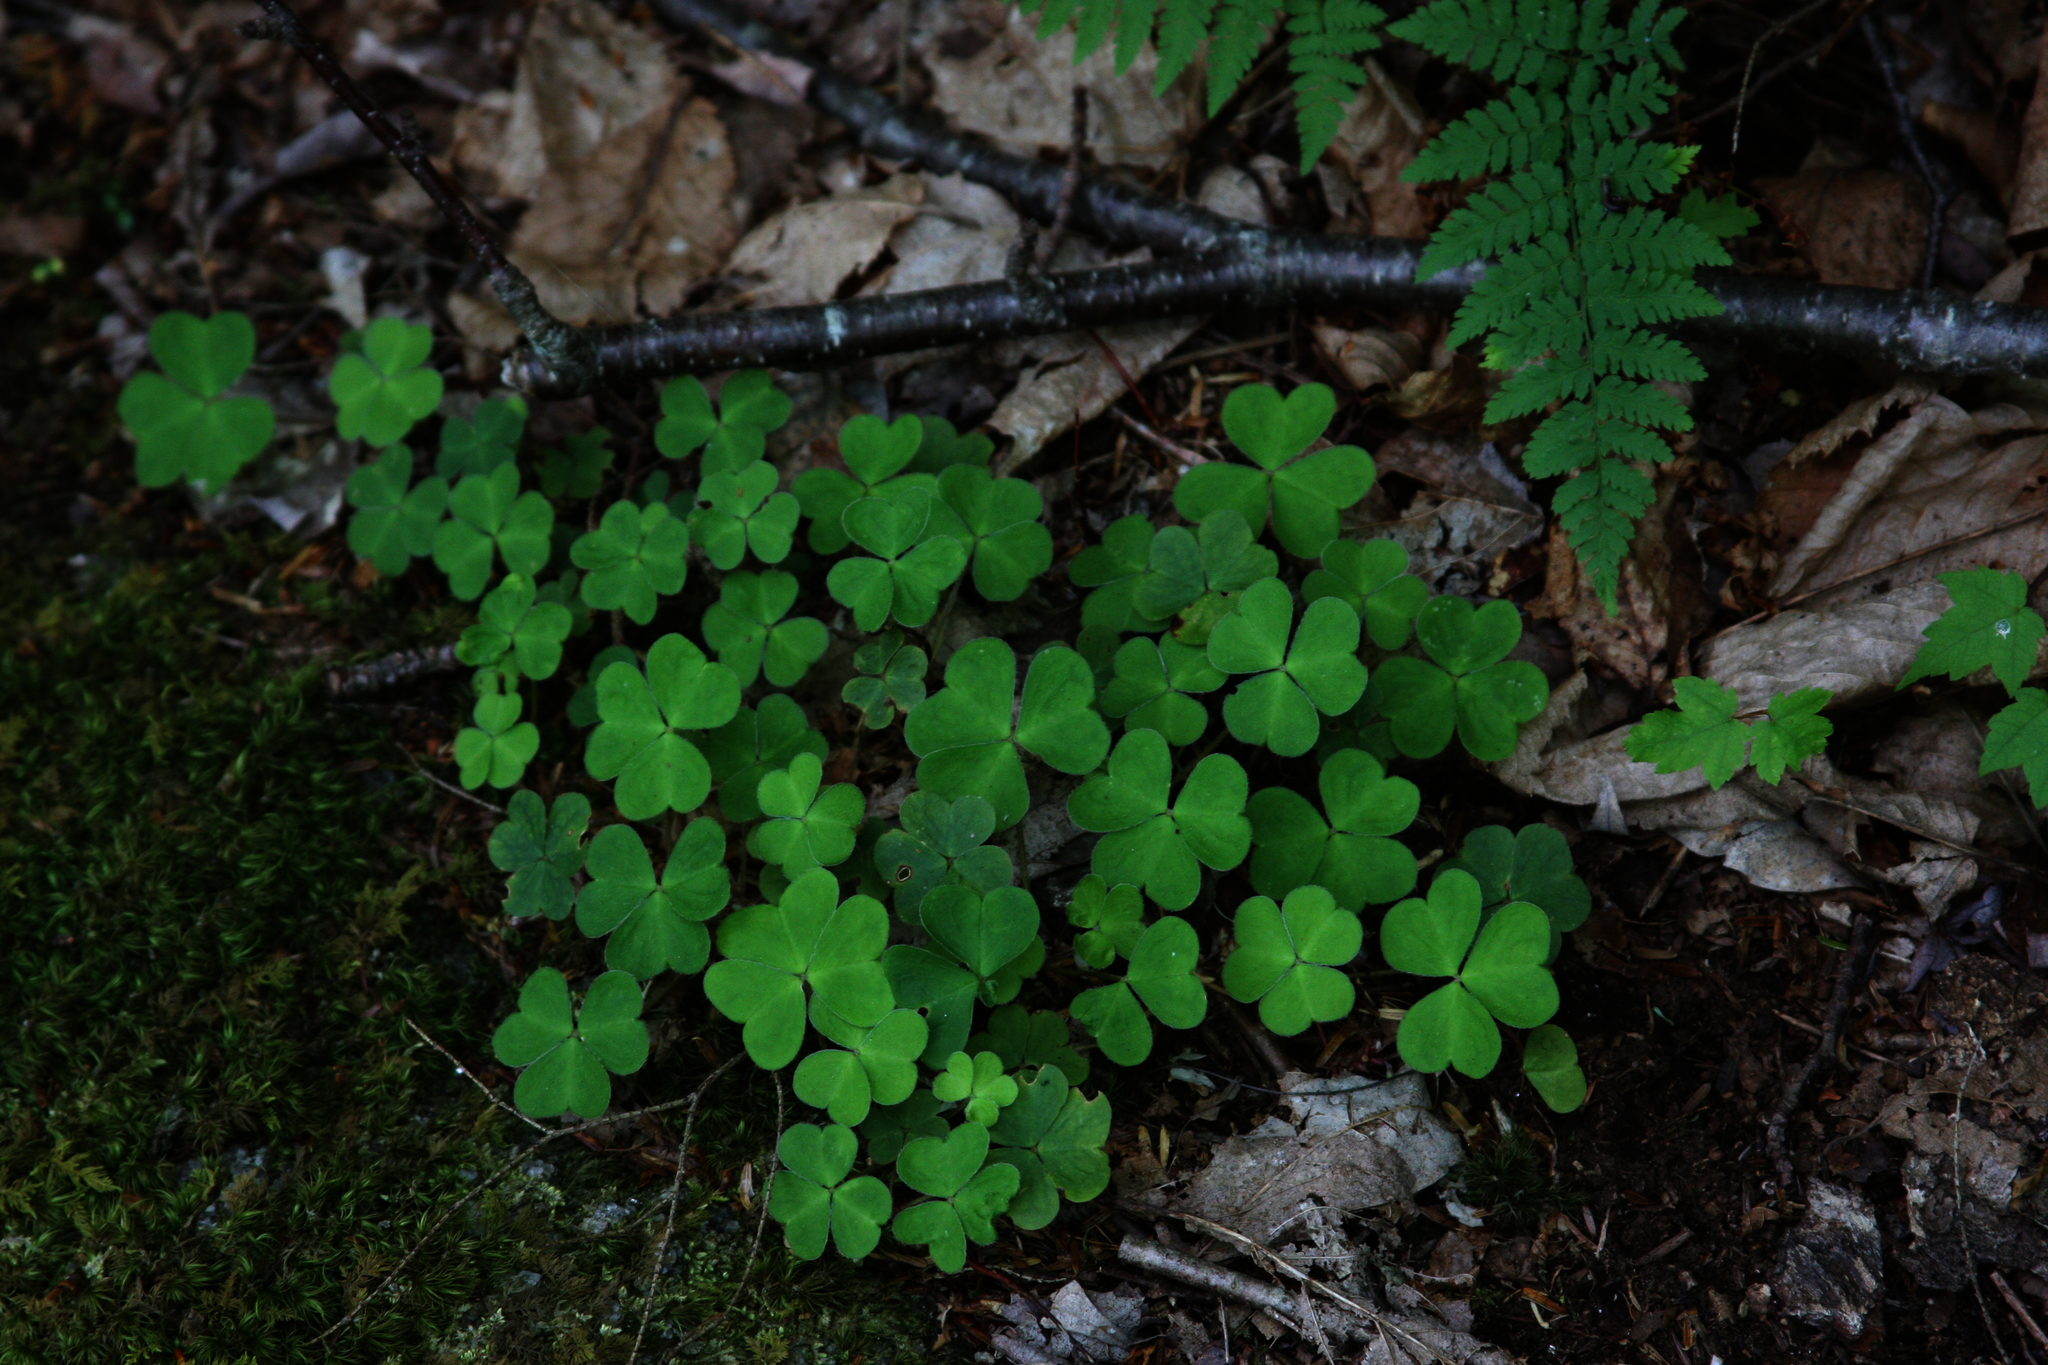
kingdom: Plantae
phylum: Tracheophyta
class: Magnoliopsida
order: Oxalidales
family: Oxalidaceae
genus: Oxalis
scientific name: Oxalis montana
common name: American wood-sorrel
